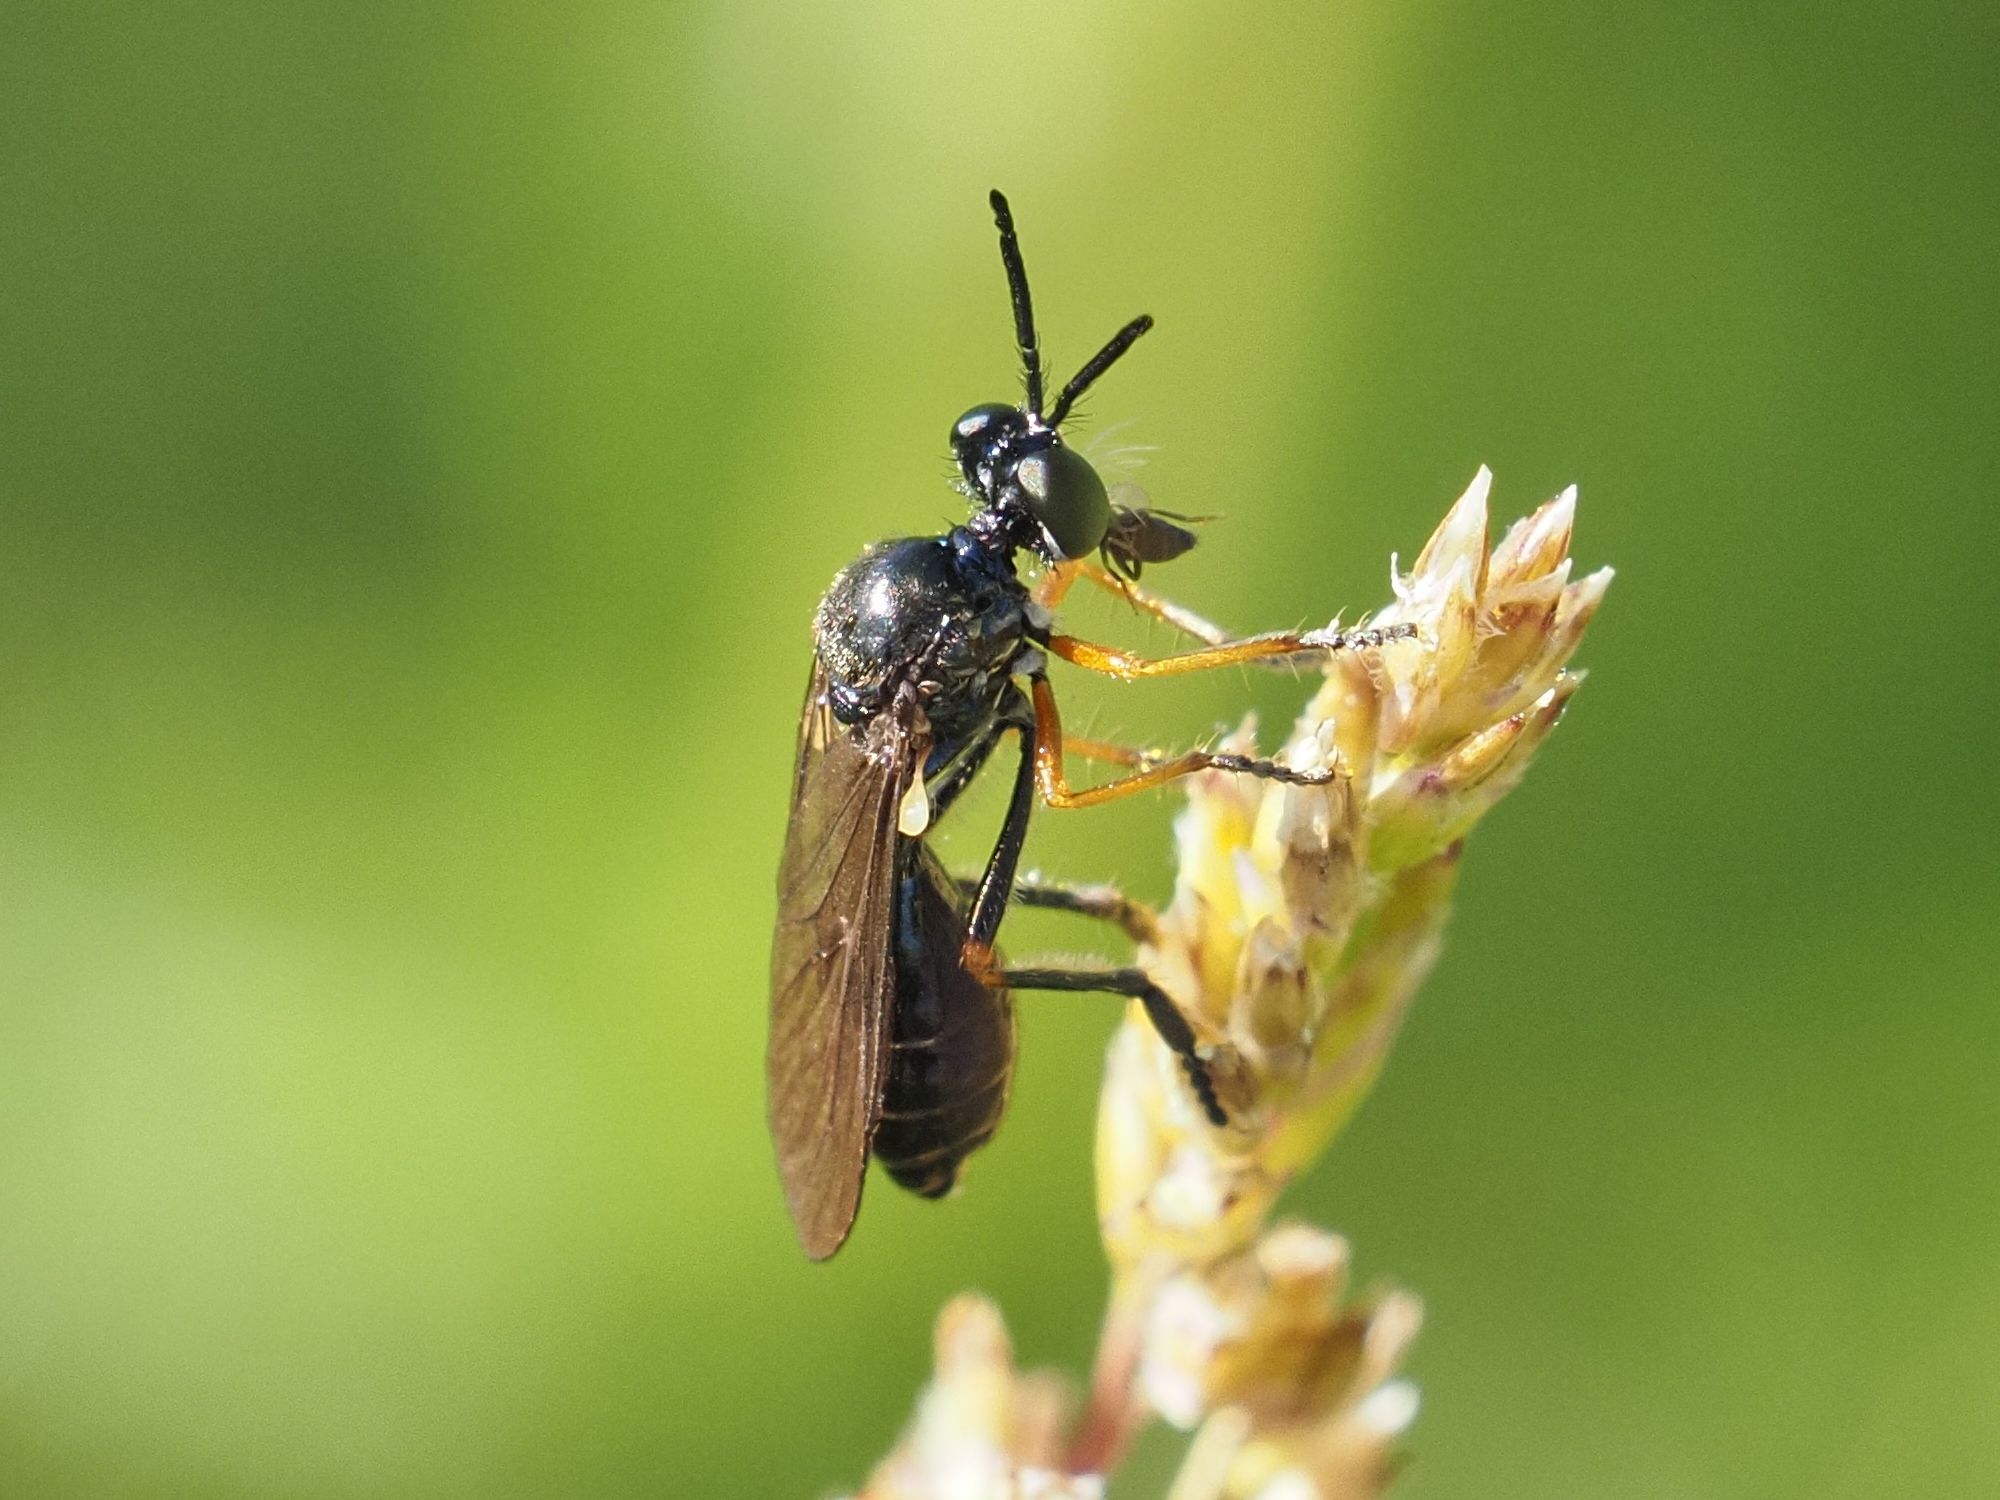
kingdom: Animalia
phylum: Arthropoda
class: Insecta
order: Diptera
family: Asilidae
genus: Dioctria
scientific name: Dioctria longicornis
